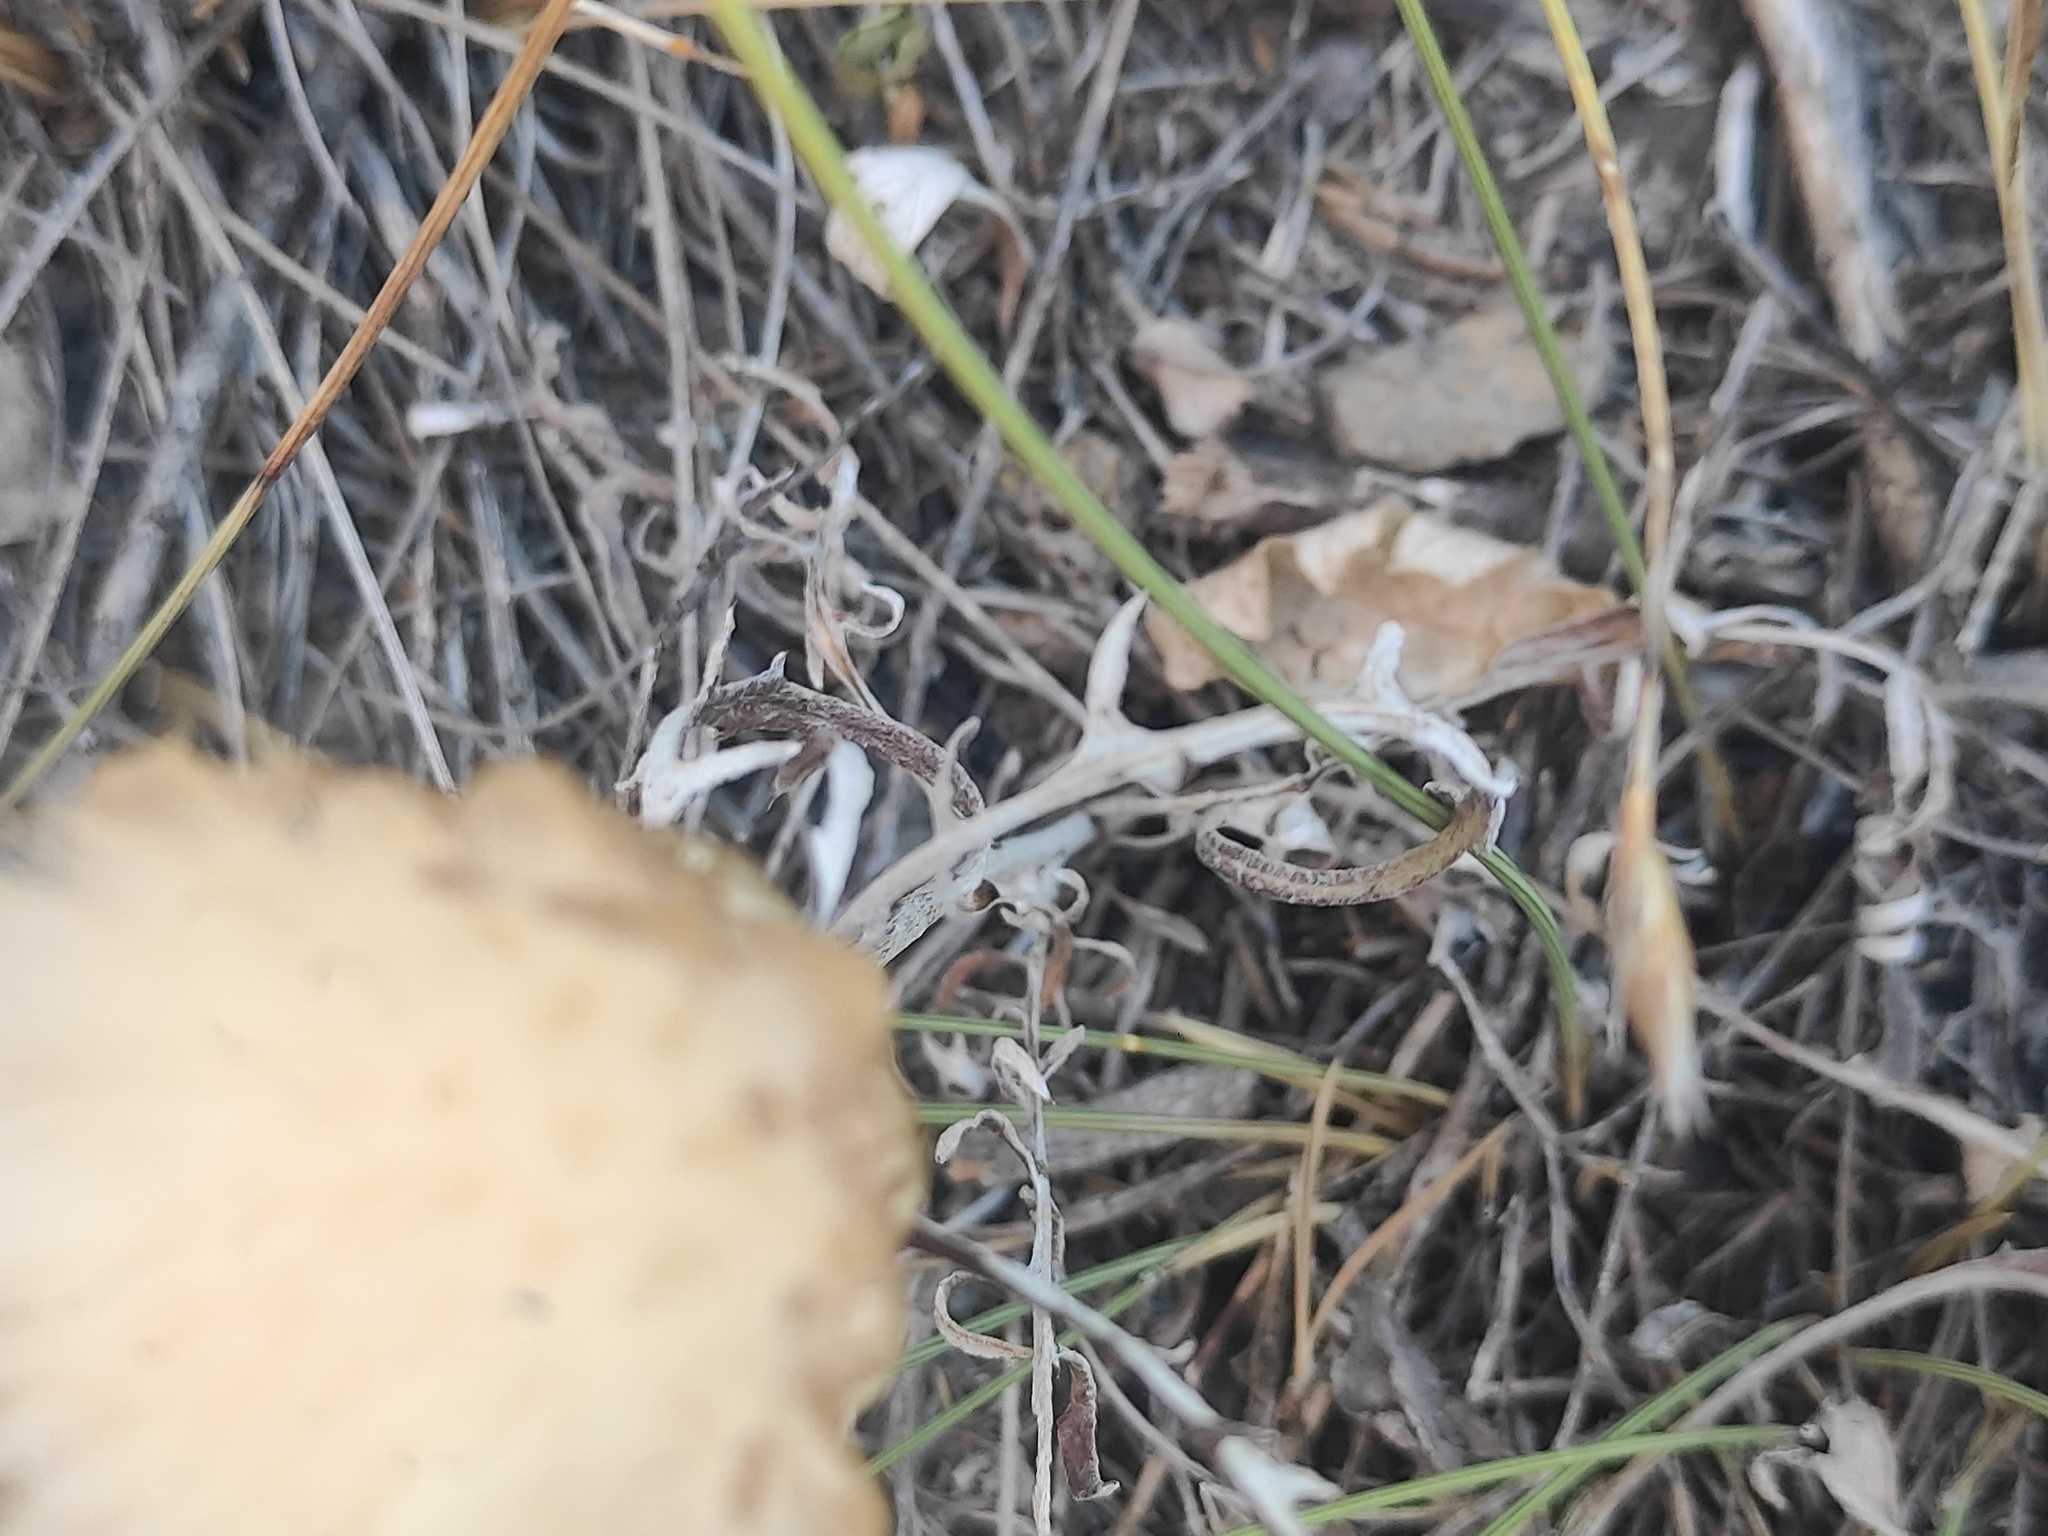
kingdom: Plantae
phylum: Tracheophyta
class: Magnoliopsida
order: Asterales
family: Asteraceae
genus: Leuzea
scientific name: Leuzea conifera
